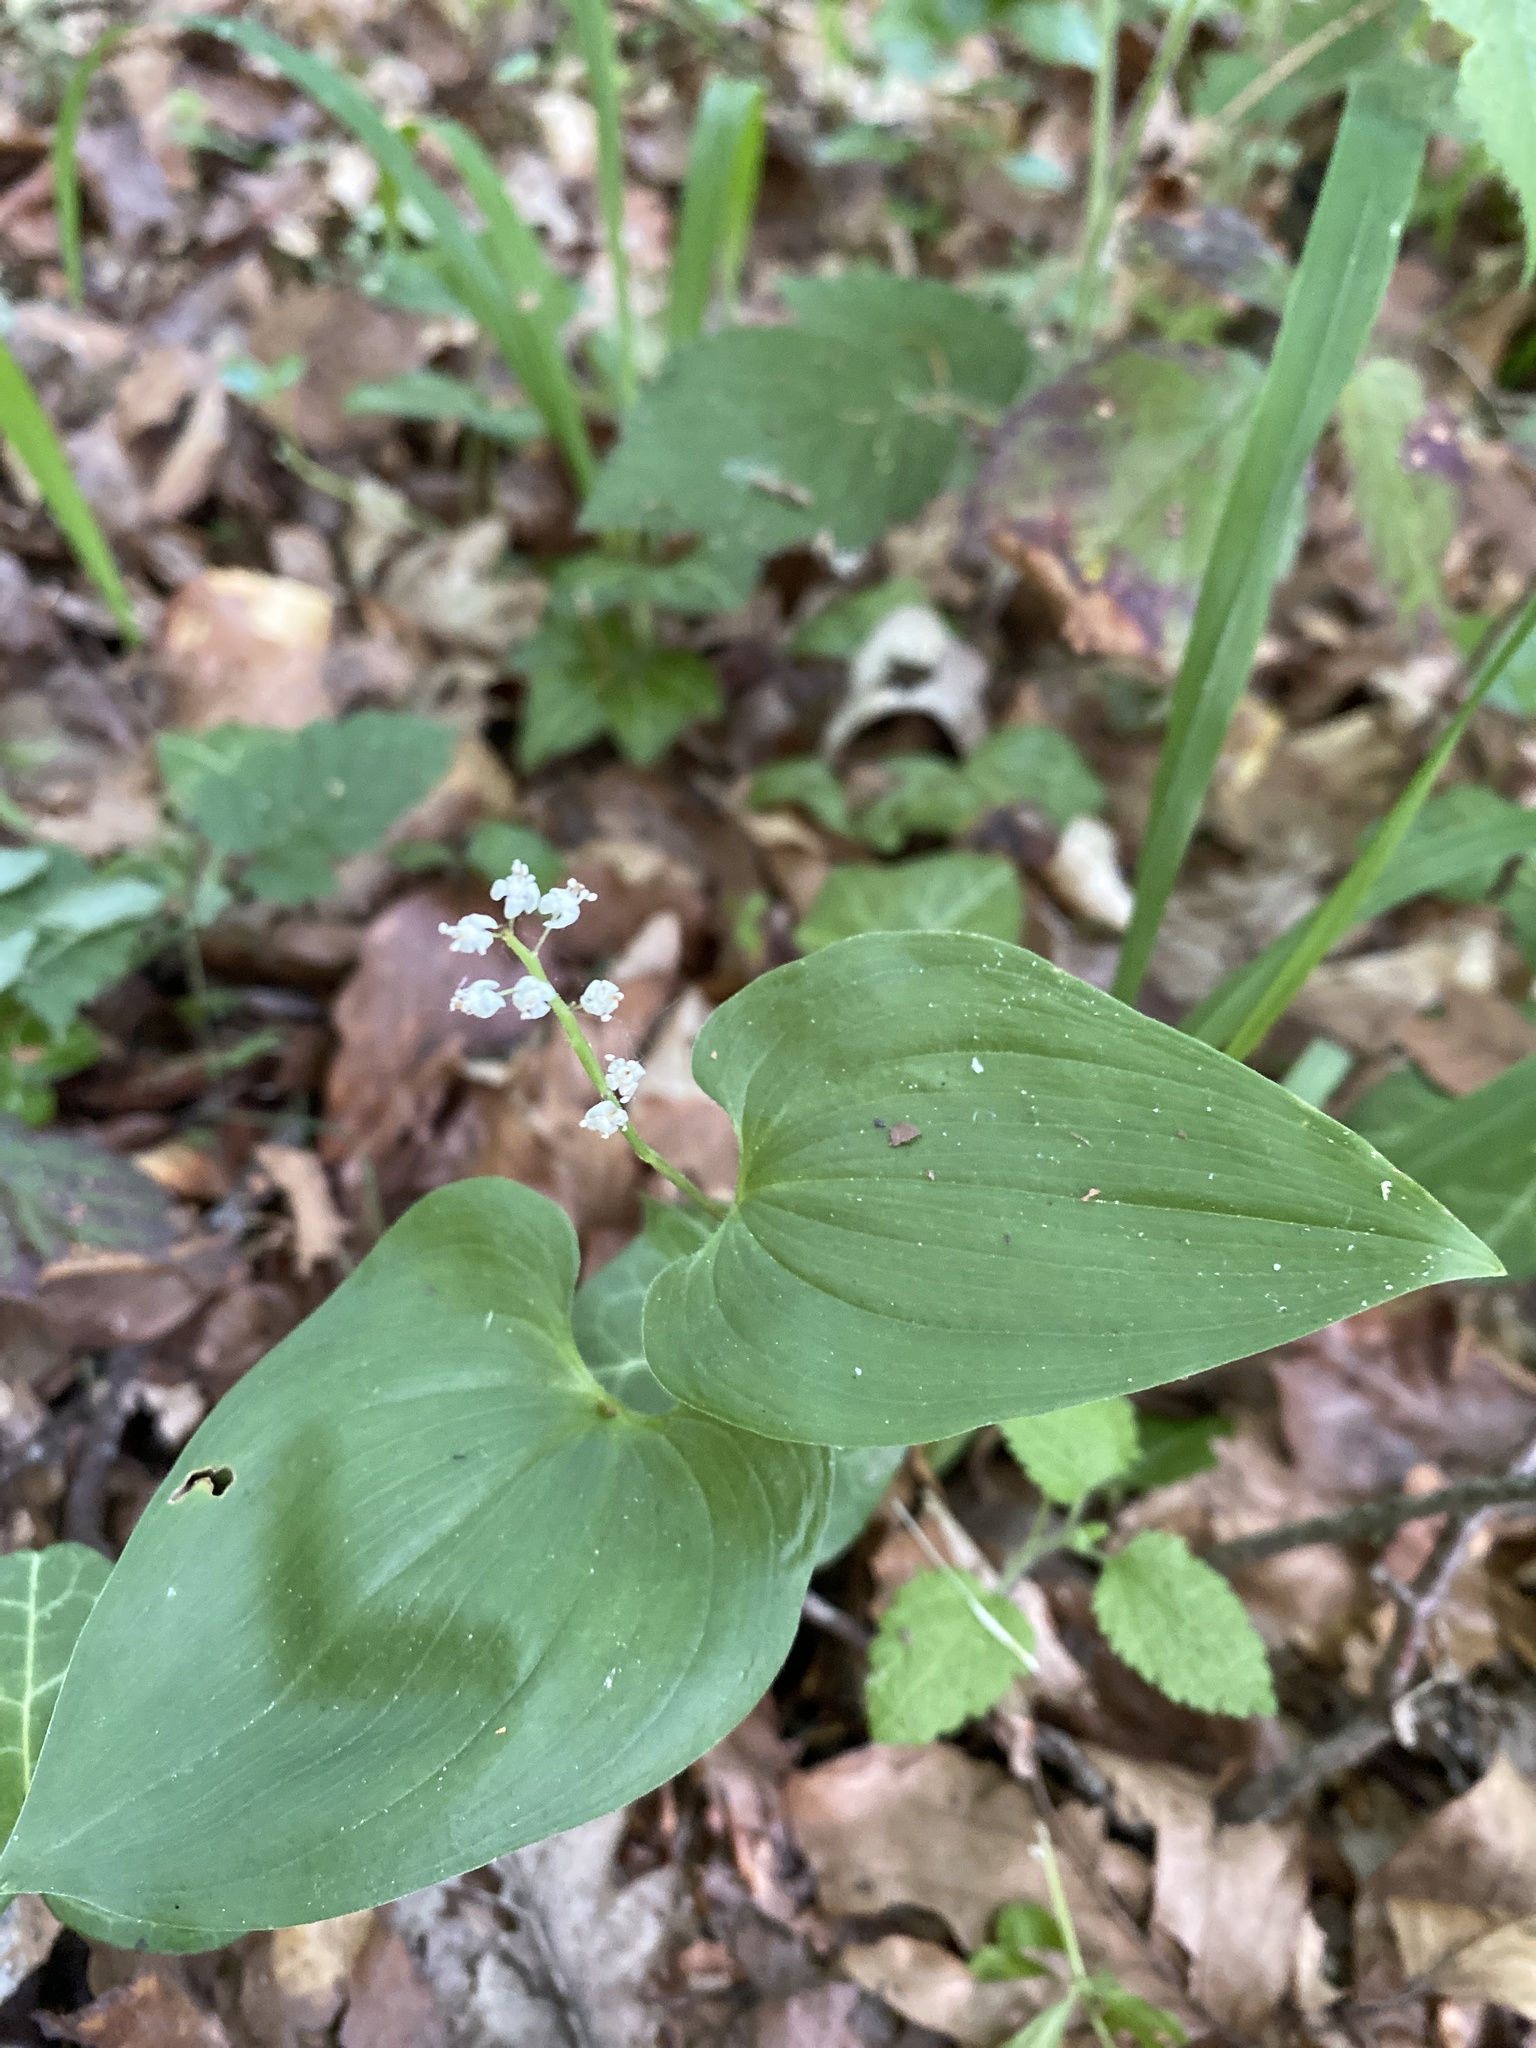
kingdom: Plantae
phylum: Tracheophyta
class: Liliopsida
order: Asparagales
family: Asparagaceae
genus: Maianthemum
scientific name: Maianthemum bifolium
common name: May lily
